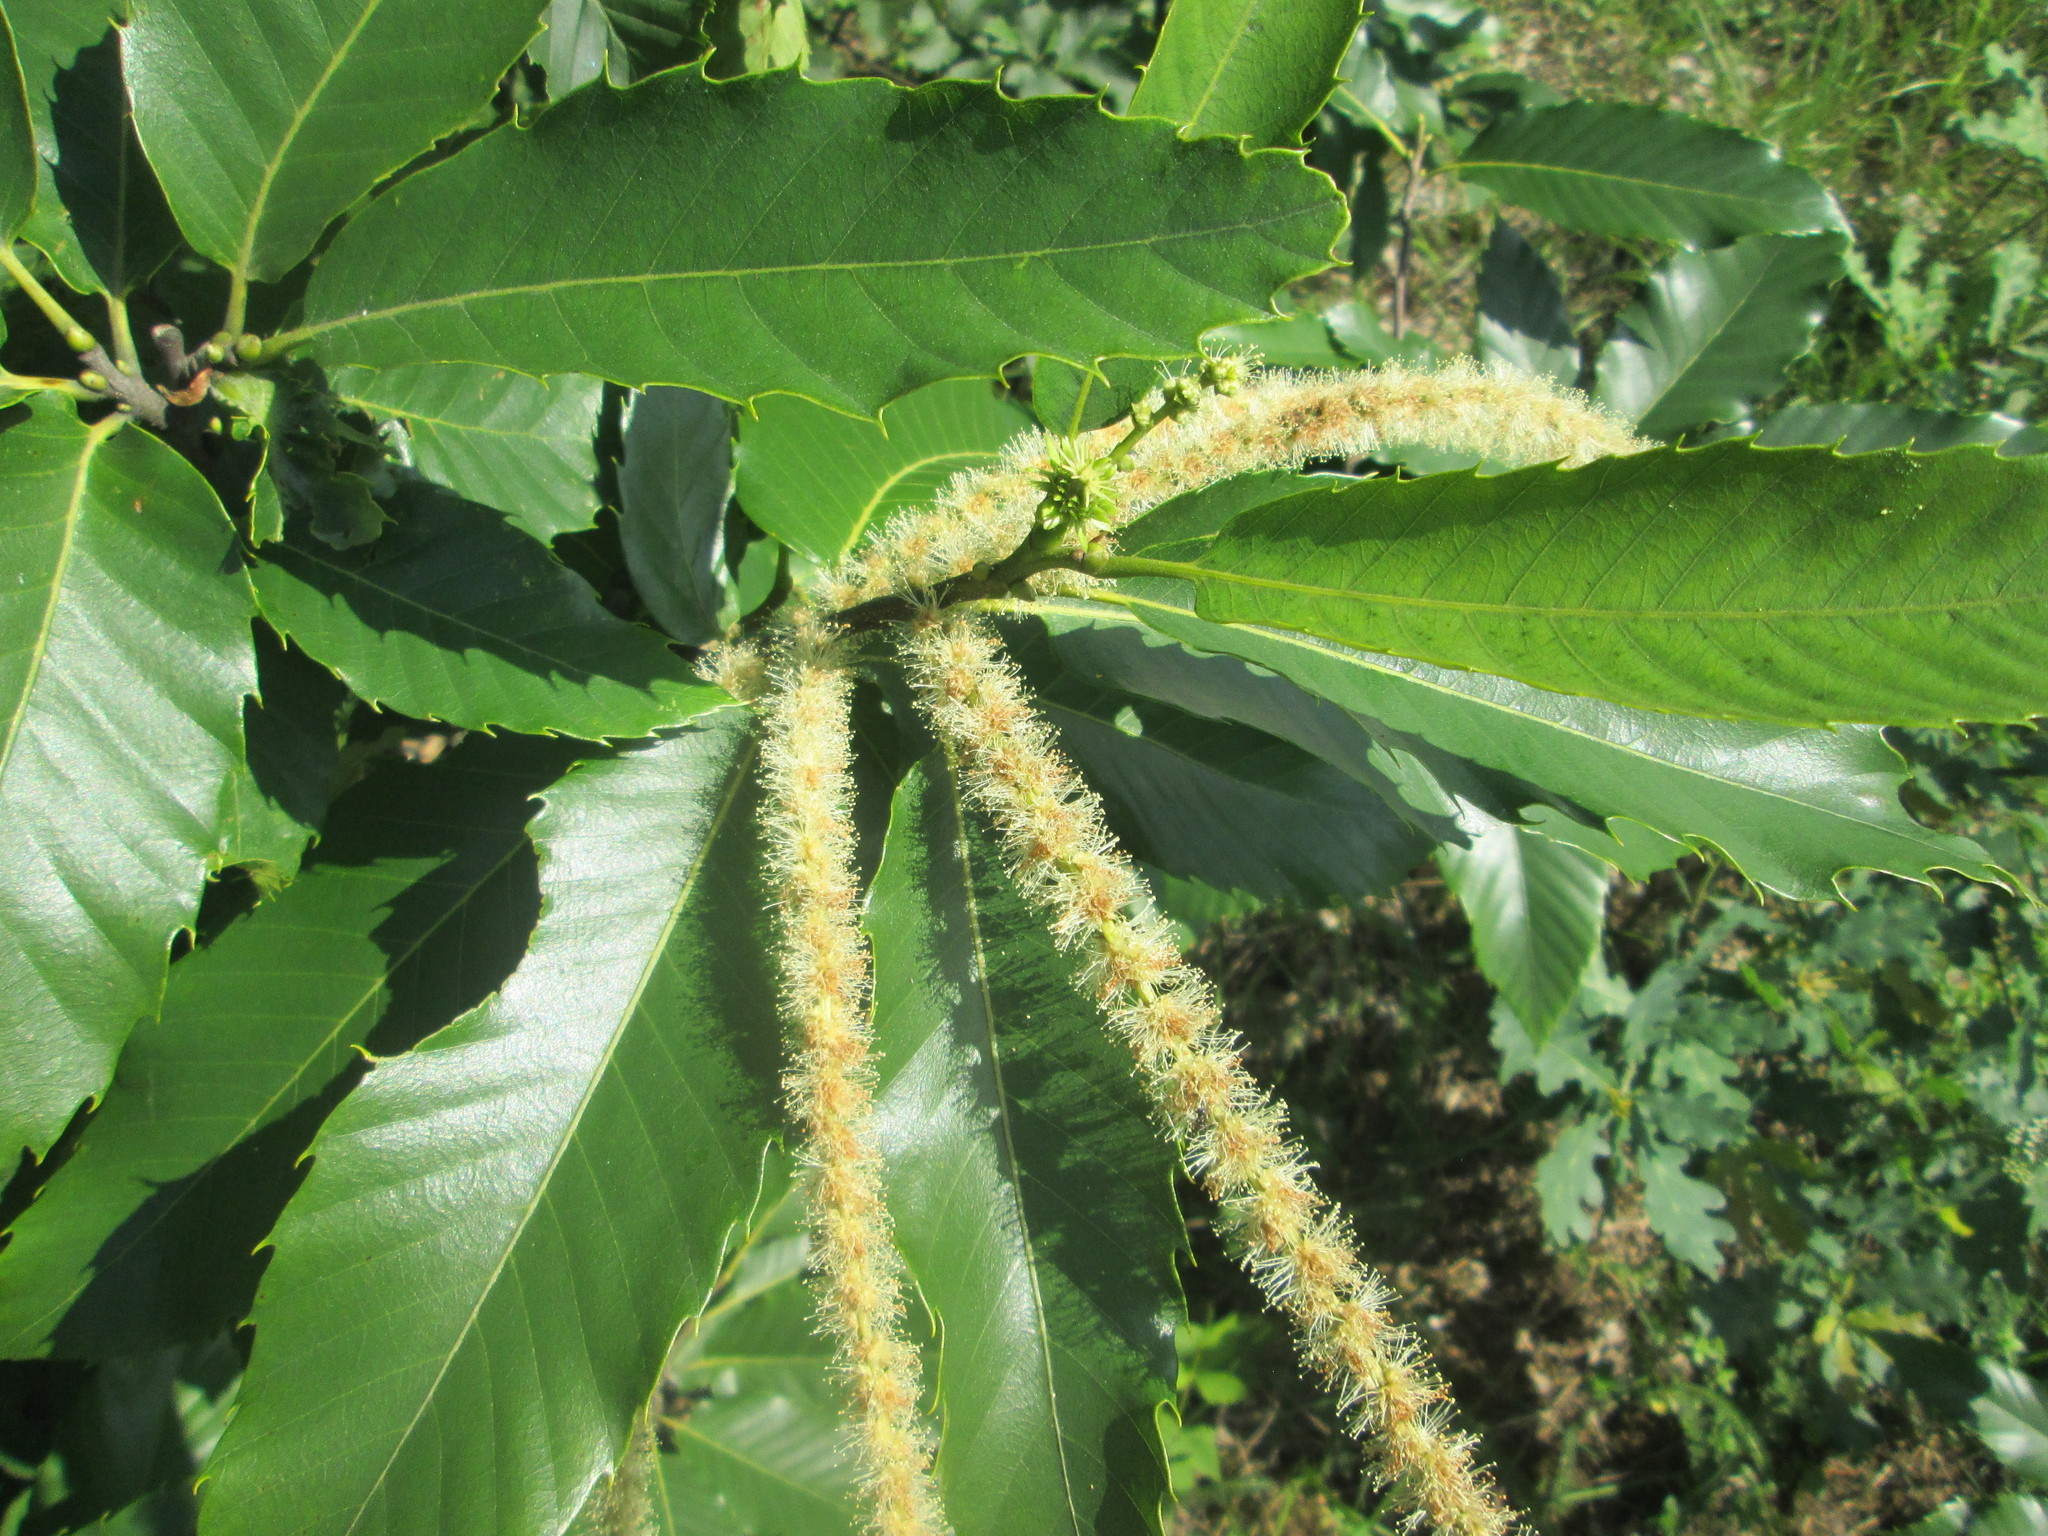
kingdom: Plantae
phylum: Tracheophyta
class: Magnoliopsida
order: Fagales
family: Fagaceae
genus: Castanea
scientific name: Castanea sativa
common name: Sweet chestnut
